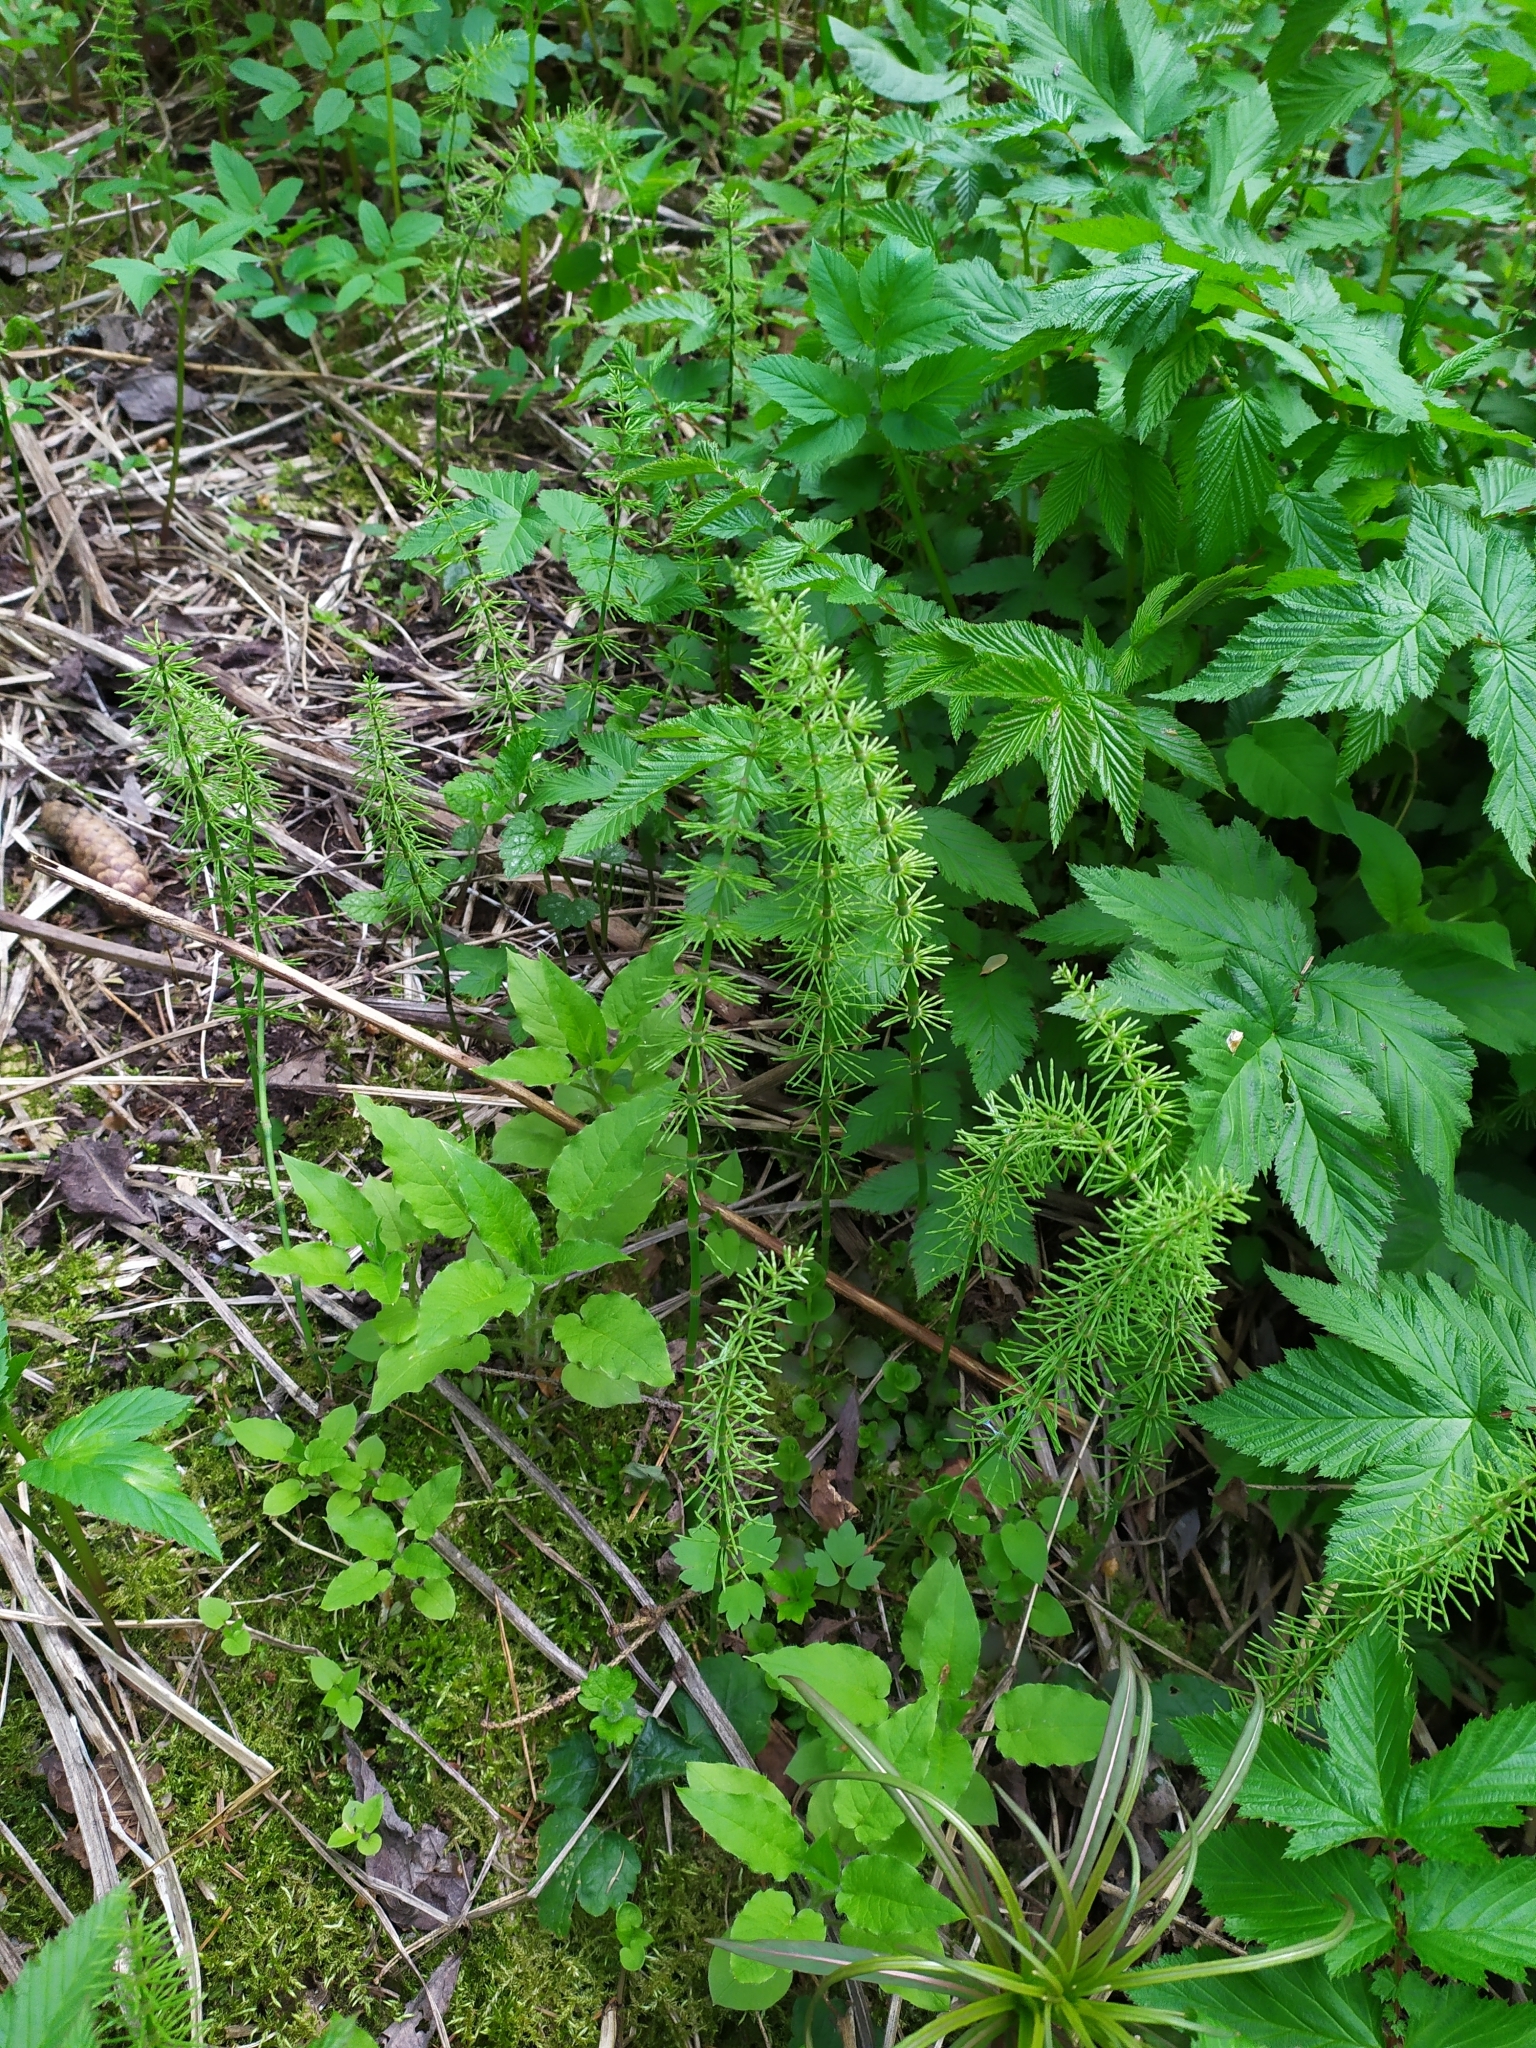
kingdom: Plantae
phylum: Tracheophyta
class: Polypodiopsida
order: Equisetales
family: Equisetaceae
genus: Equisetum
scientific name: Equisetum pratense
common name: Meadow horsetail
